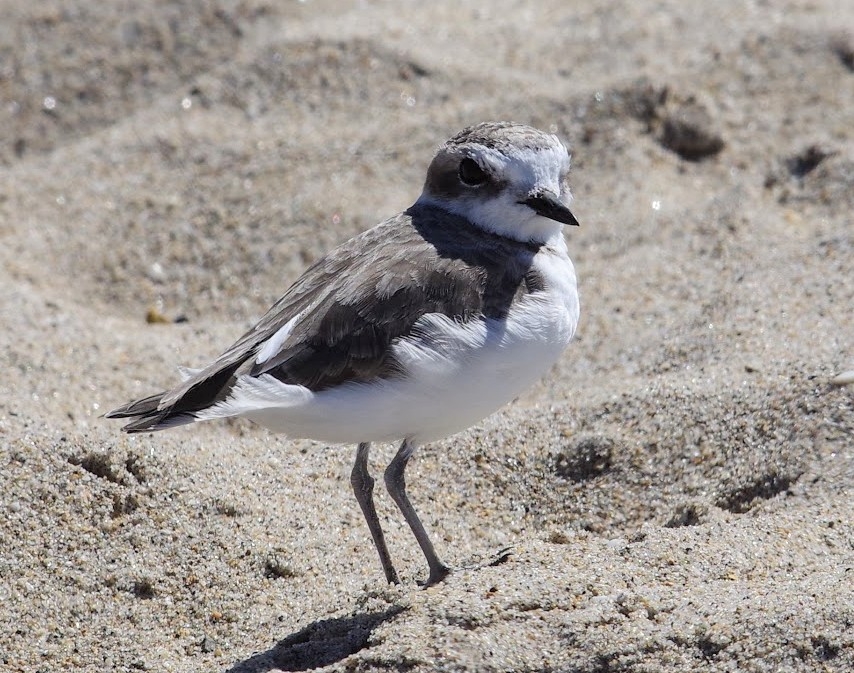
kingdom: Animalia
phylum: Chordata
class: Aves
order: Charadriiformes
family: Charadriidae
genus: Anarhynchus
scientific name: Anarhynchus
